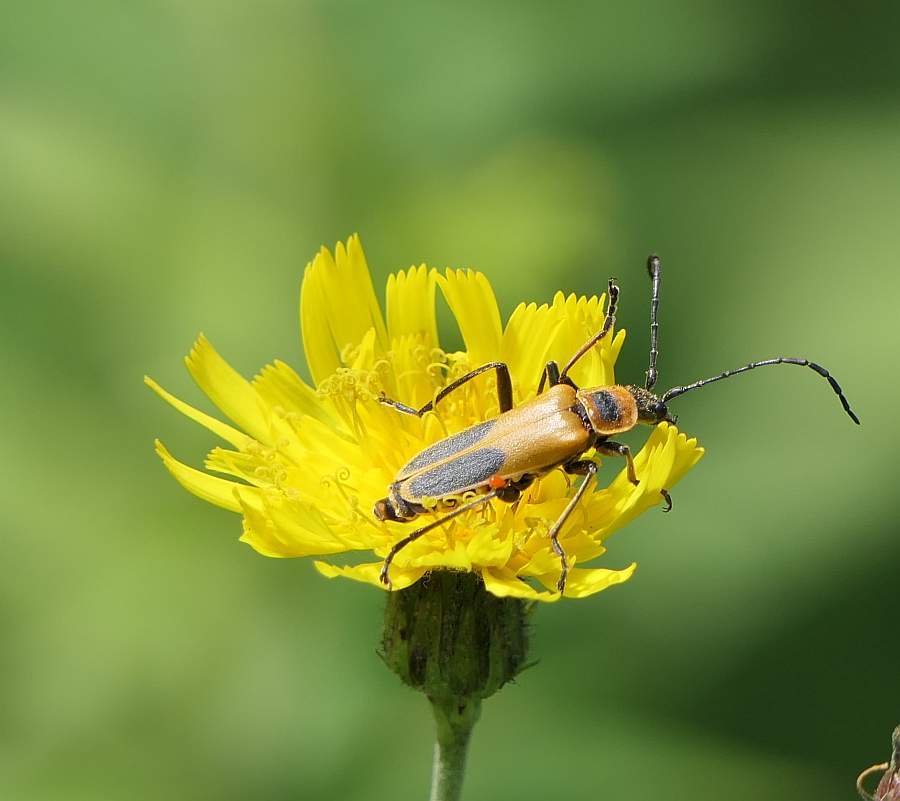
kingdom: Animalia
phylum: Arthropoda
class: Insecta
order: Coleoptera
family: Cantharidae
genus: Chauliognathus
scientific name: Chauliognathus pensylvanicus
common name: Goldenrod soldier beetle
